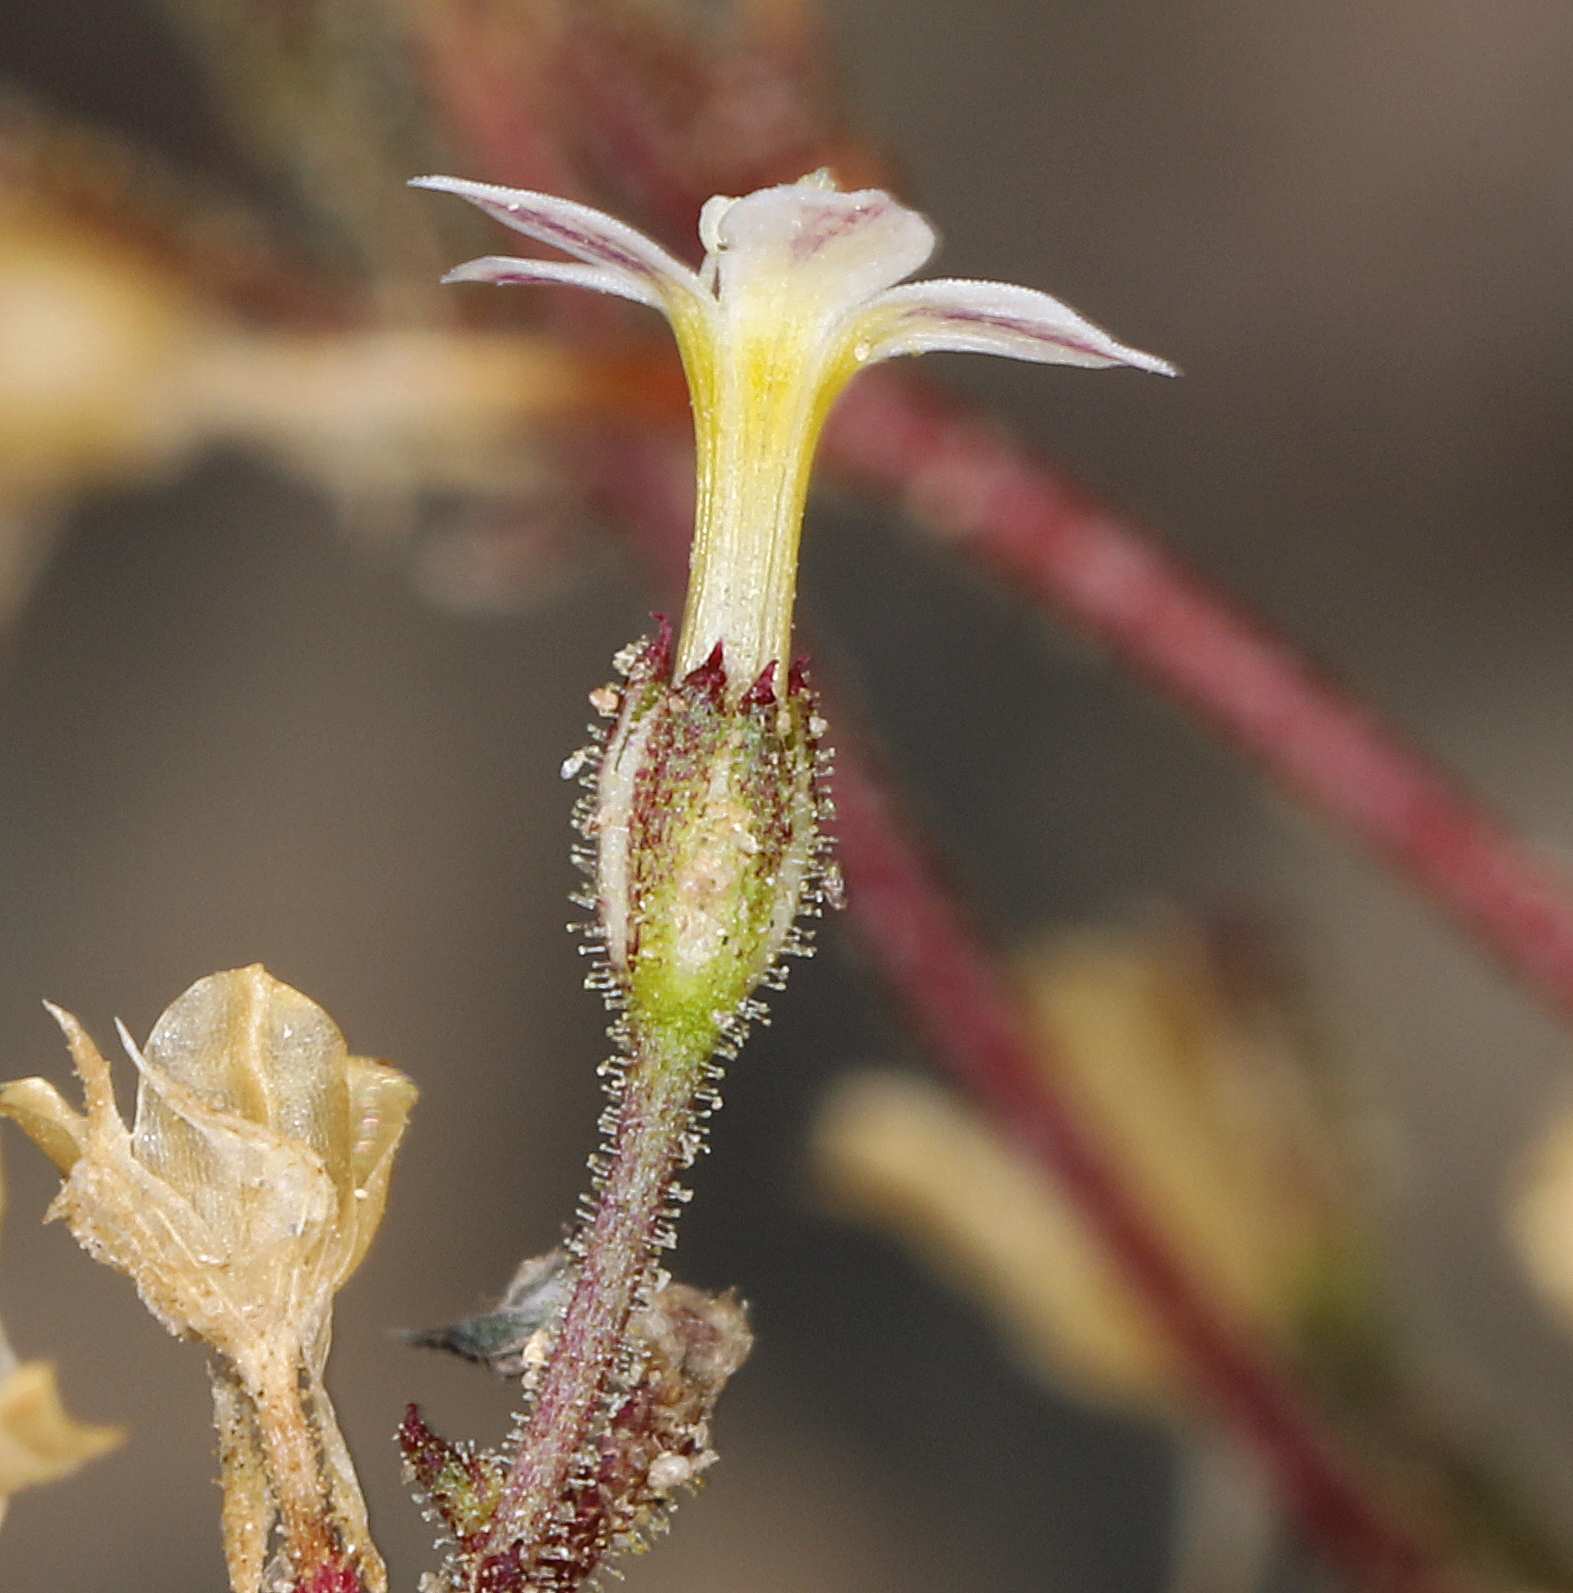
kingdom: Plantae
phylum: Tracheophyta
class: Magnoliopsida
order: Ericales
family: Polemoniaceae
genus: Aliciella
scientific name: Aliciella leptomeria
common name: Sand gilia
